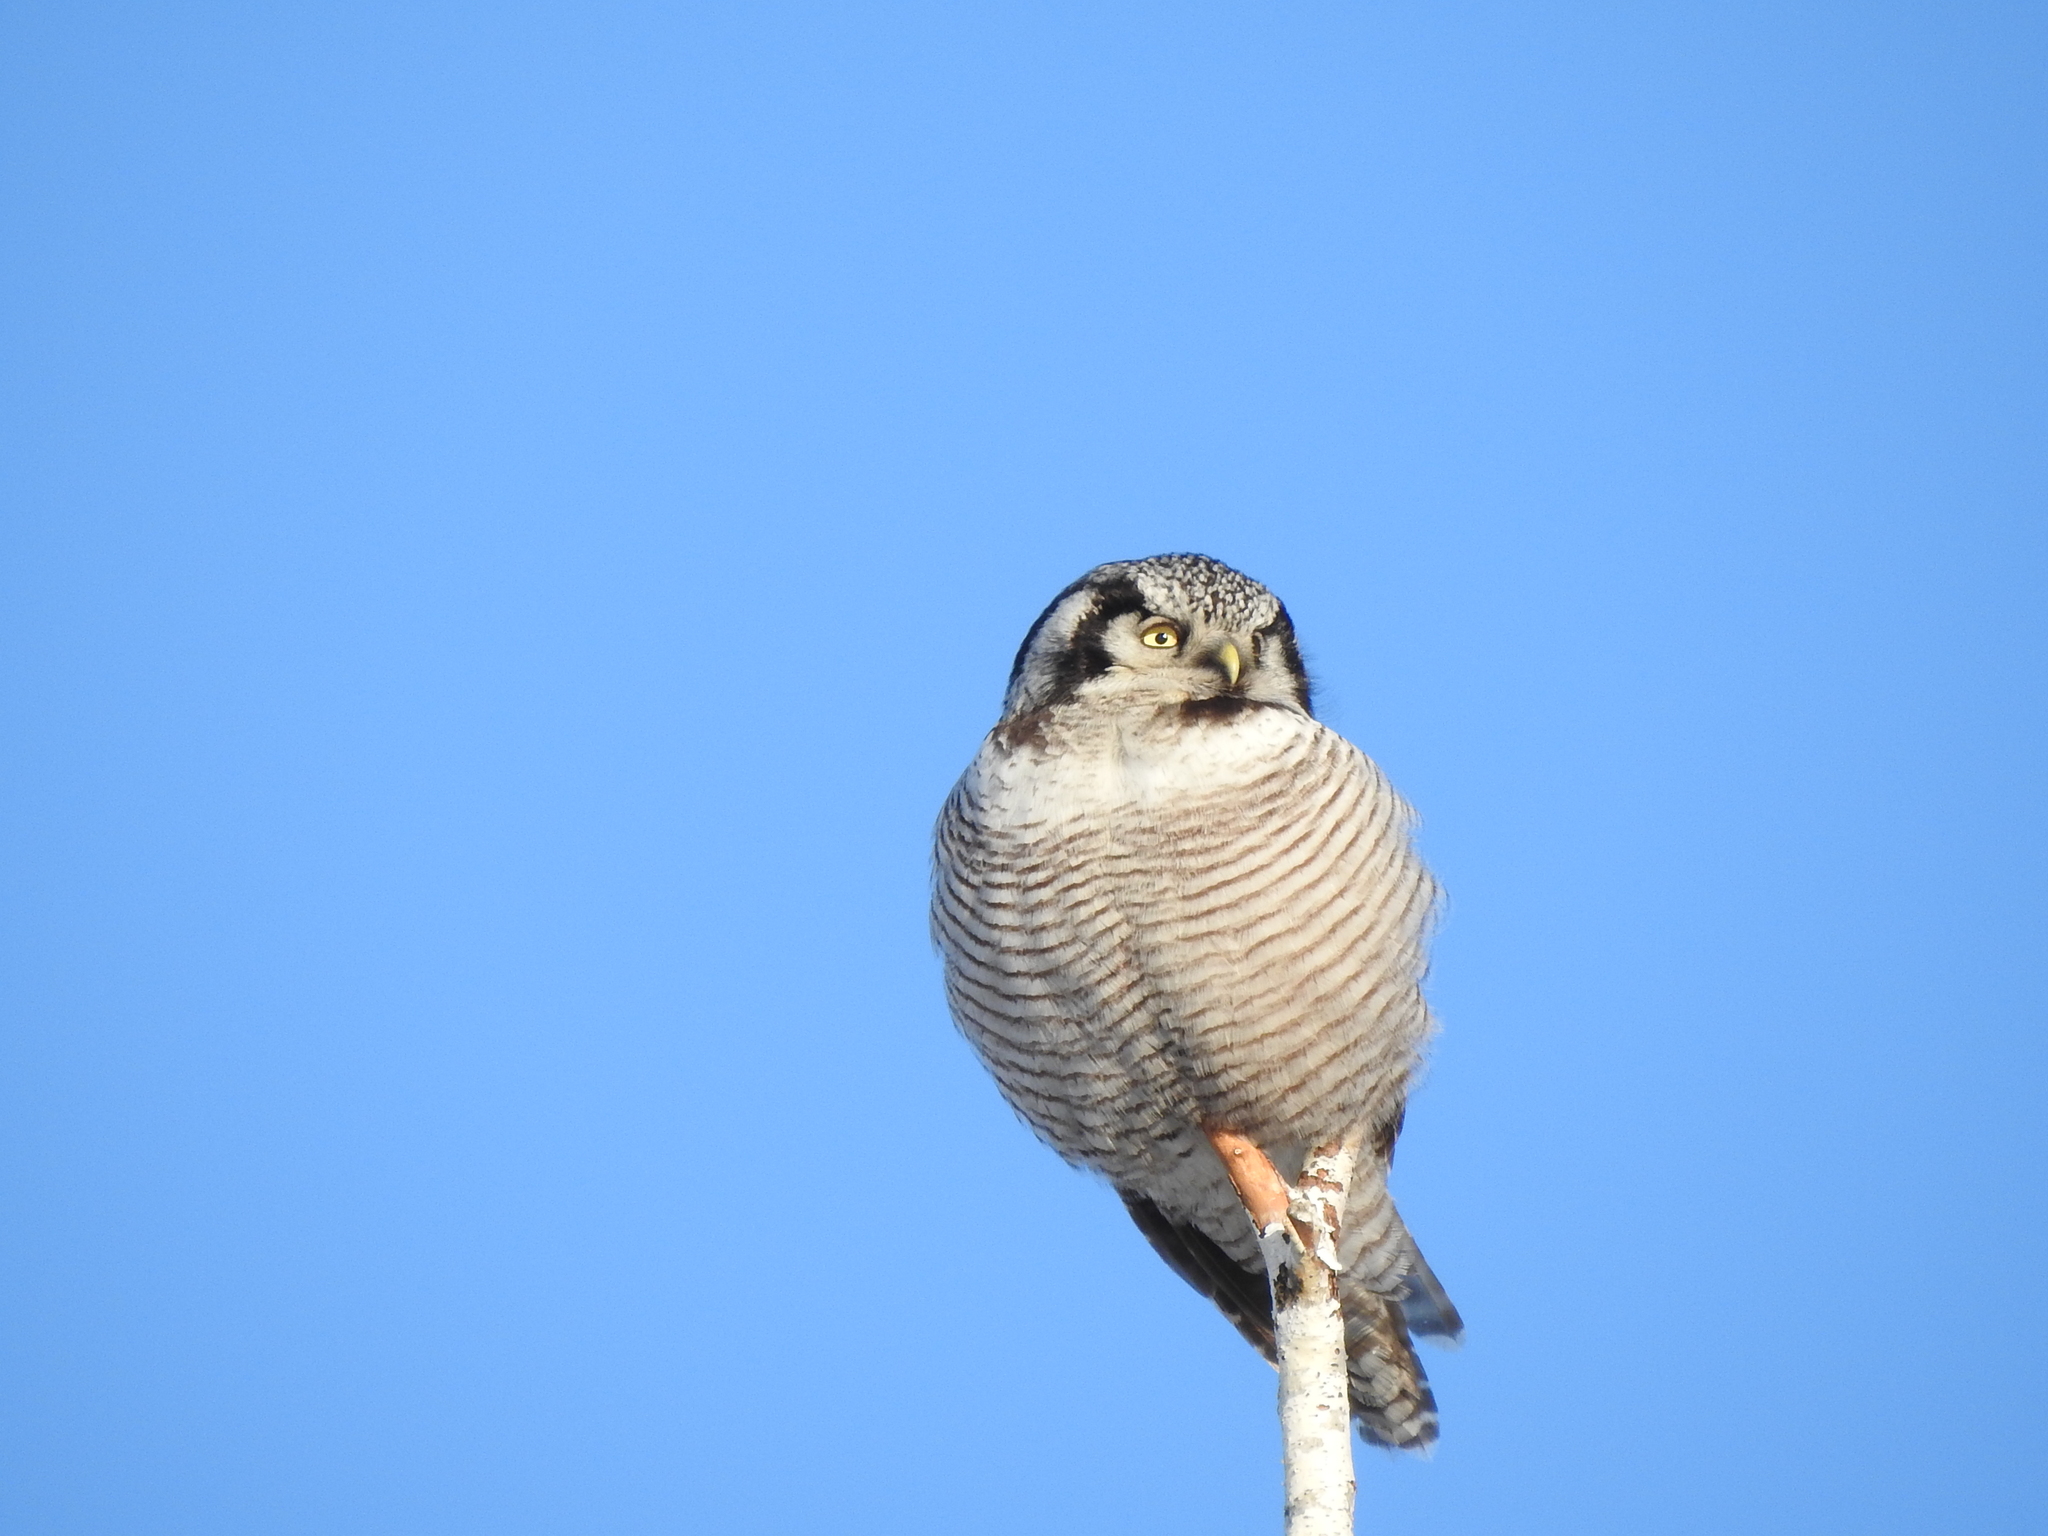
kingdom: Animalia
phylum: Chordata
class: Aves
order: Strigiformes
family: Strigidae
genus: Surnia
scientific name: Surnia ulula
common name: Northern hawk-owl
